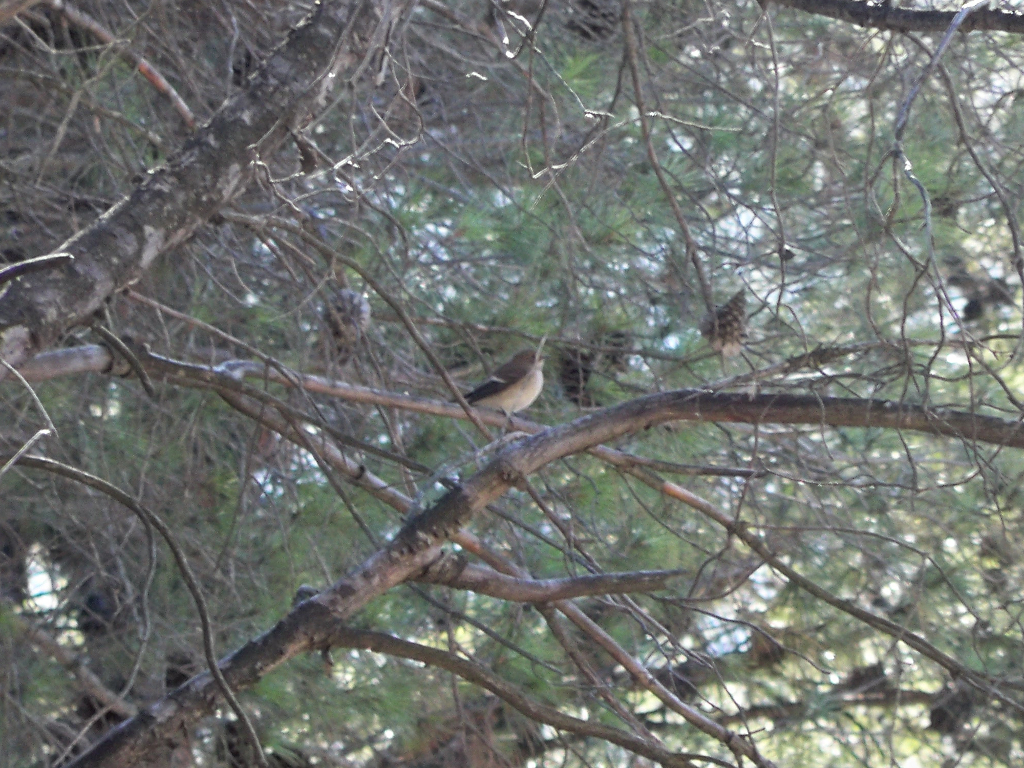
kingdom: Animalia
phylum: Chordata
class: Aves
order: Passeriformes
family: Muscicapidae
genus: Ficedula
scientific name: Ficedula hypoleuca
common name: European pied flycatcher
